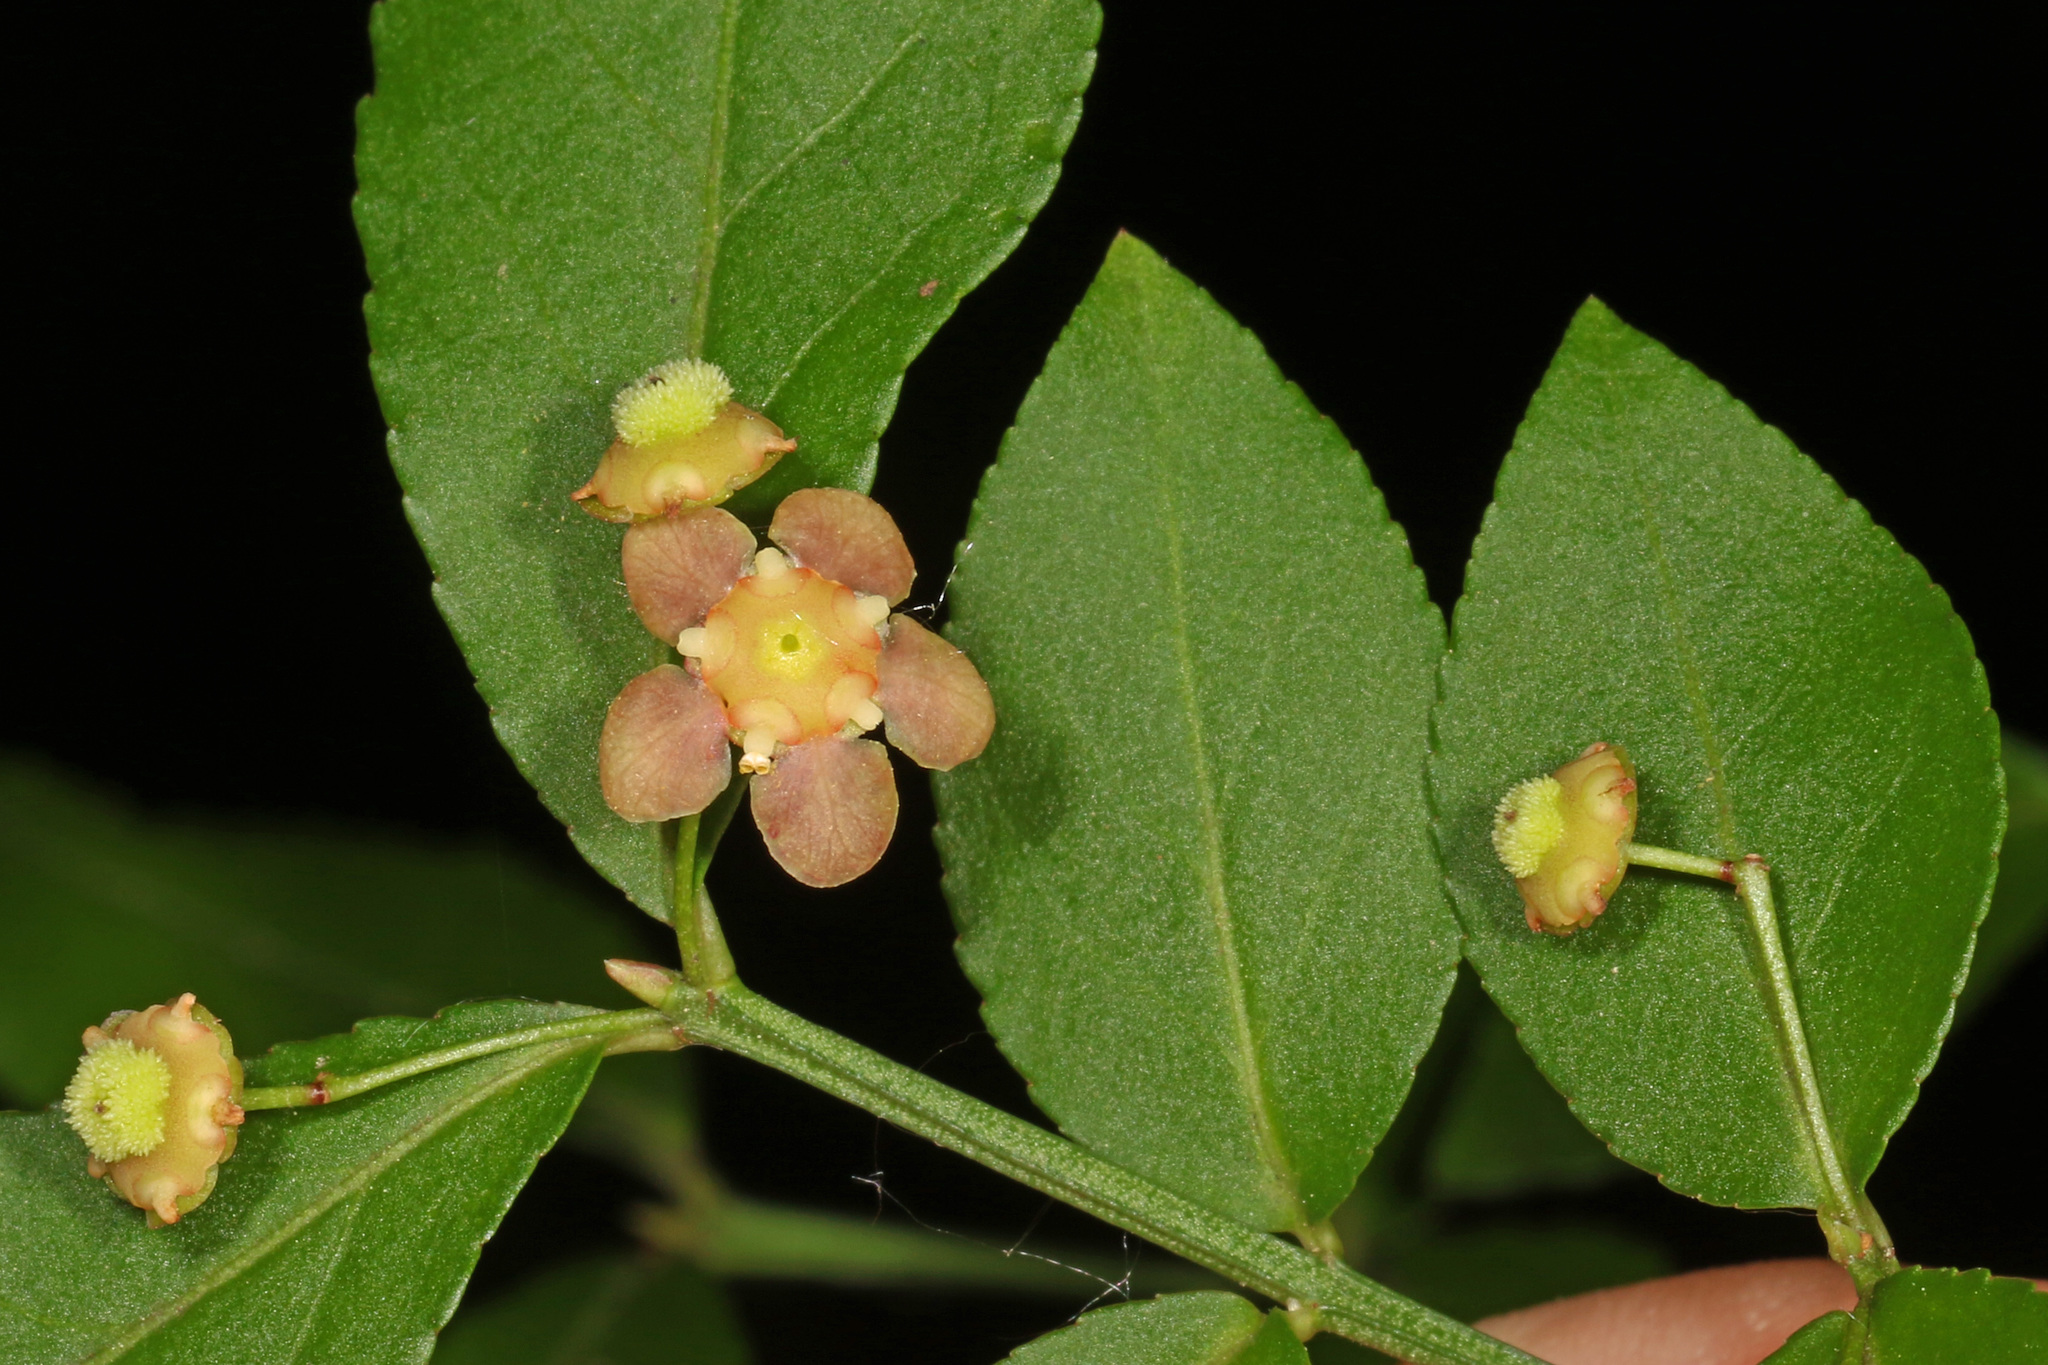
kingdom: Plantae
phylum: Tracheophyta
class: Magnoliopsida
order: Celastrales
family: Celastraceae
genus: Euonymus
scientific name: Euonymus americanus
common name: Bursting-heart
